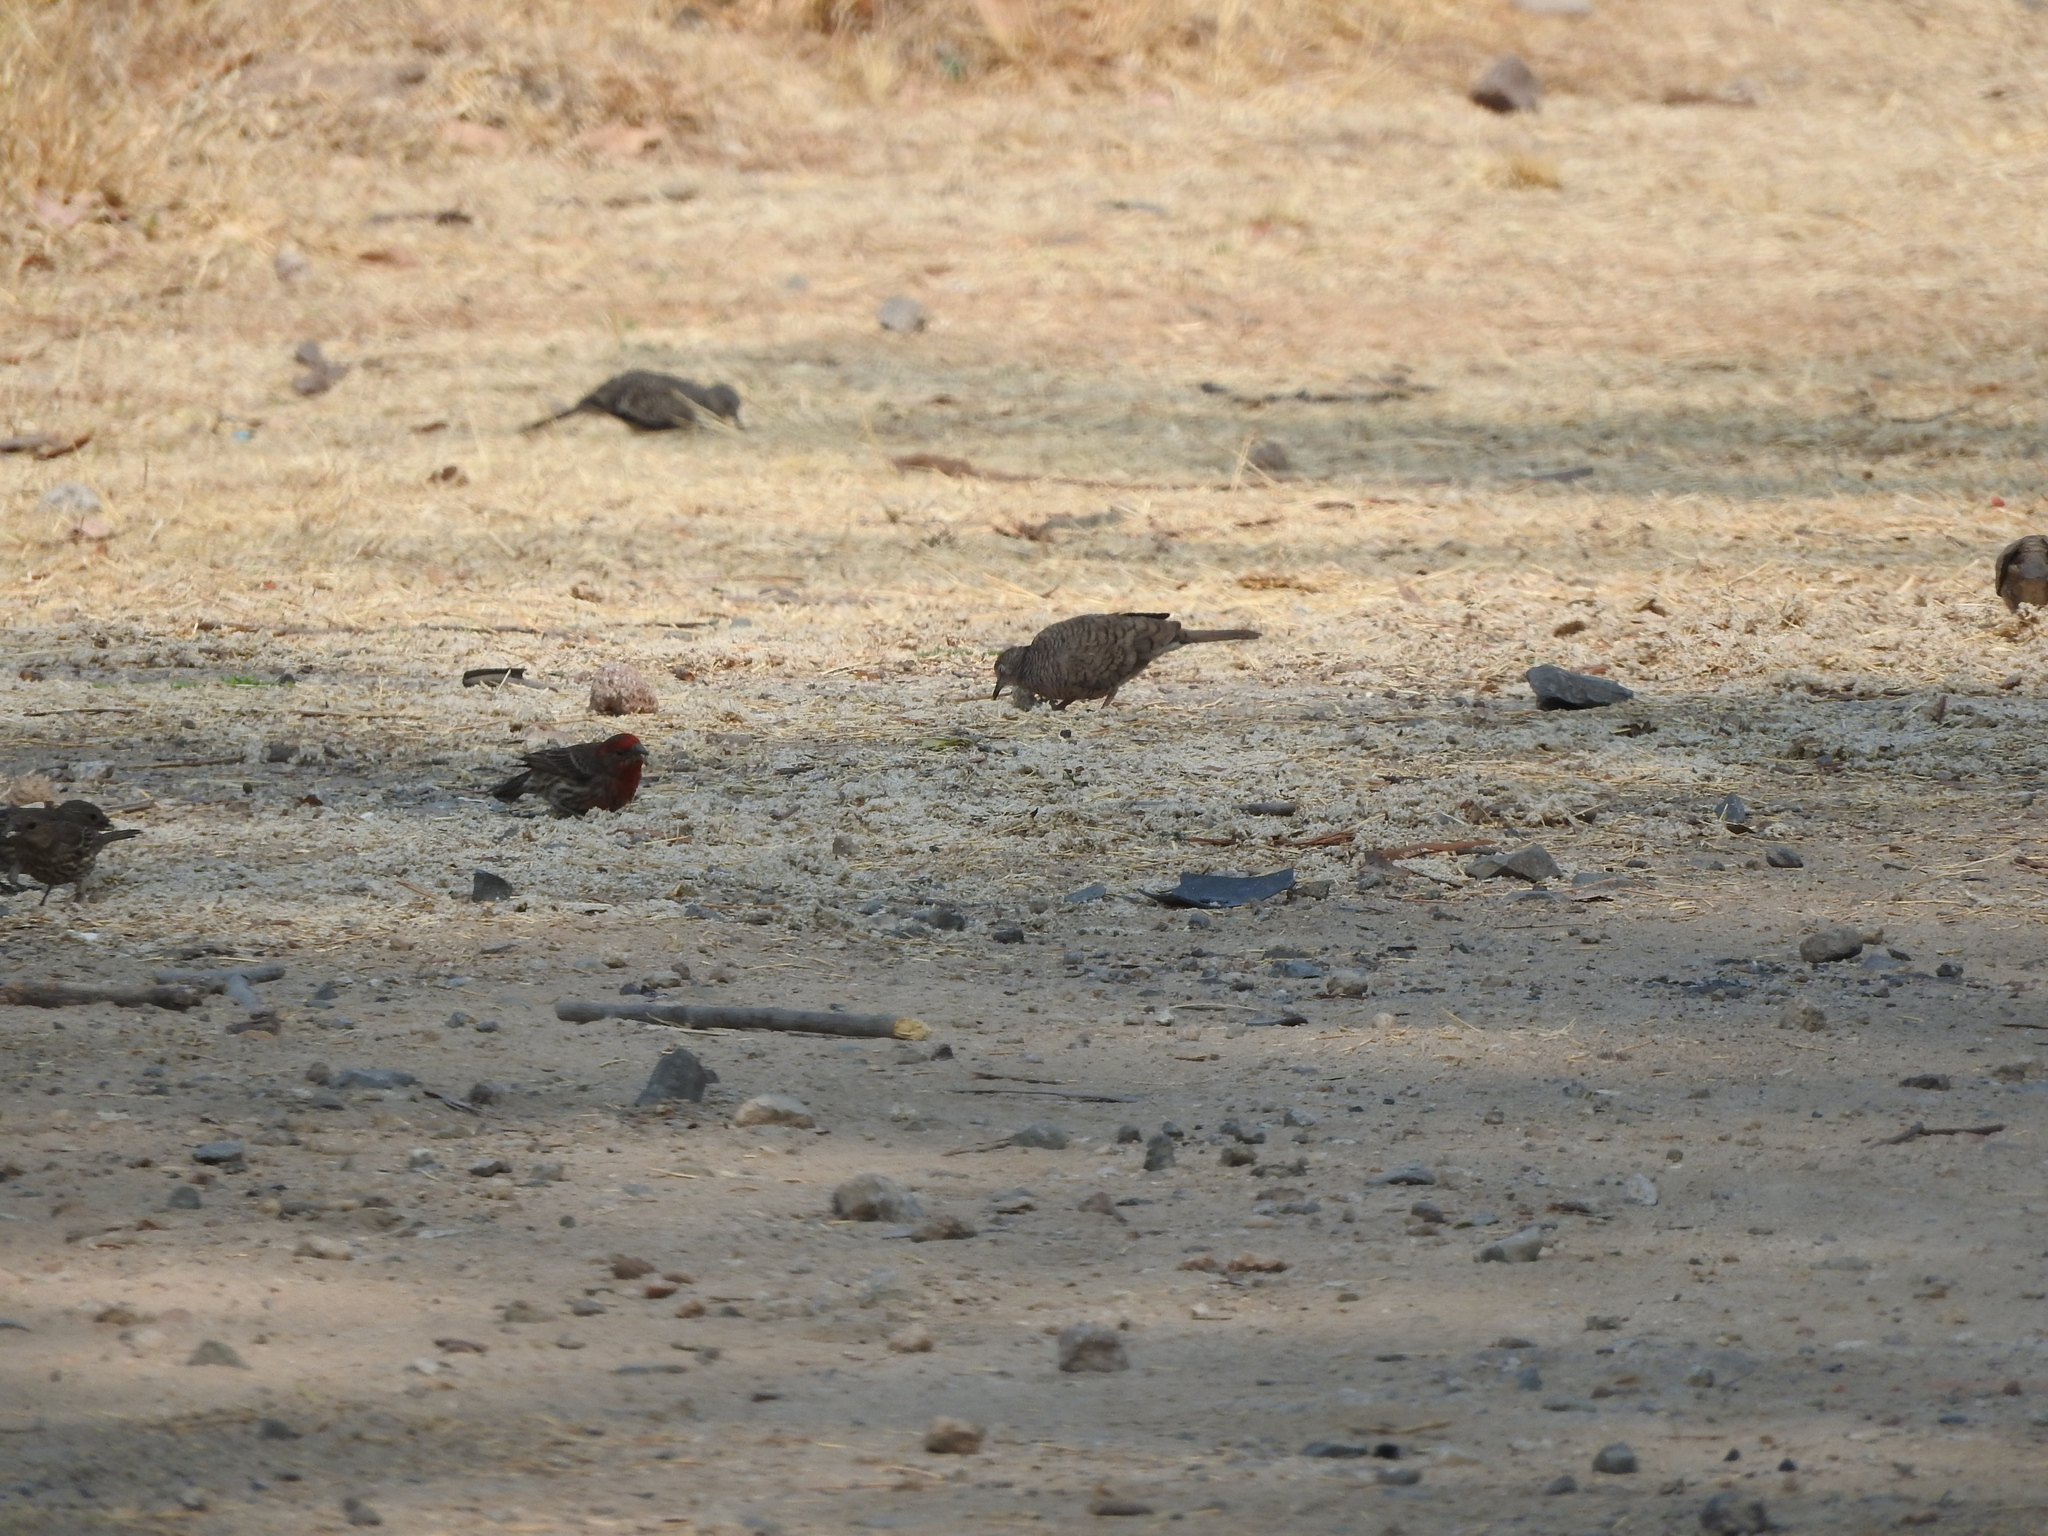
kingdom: Animalia
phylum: Chordata
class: Aves
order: Passeriformes
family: Fringillidae
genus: Haemorhous
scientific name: Haemorhous mexicanus
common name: House finch
